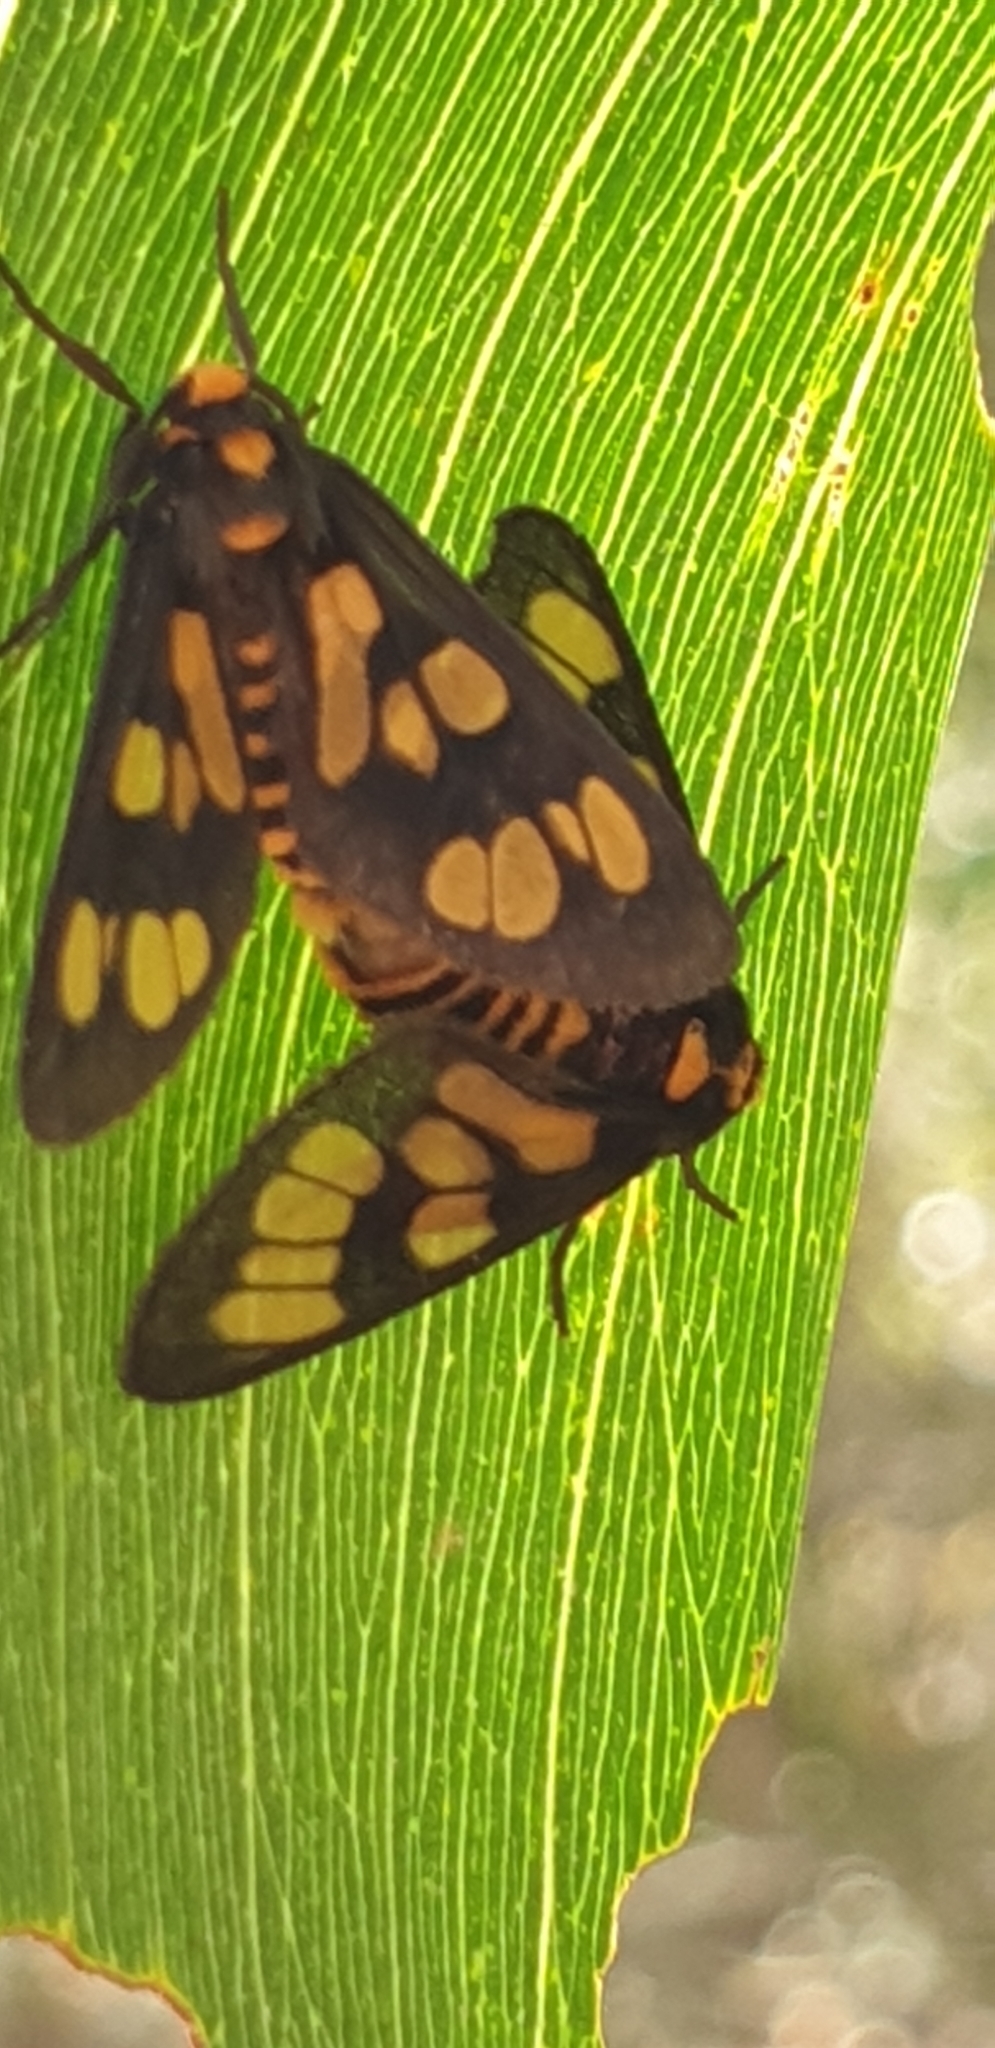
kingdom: Animalia
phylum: Arthropoda
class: Insecta
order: Lepidoptera
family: Erebidae
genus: Eressa
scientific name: Eressa geographica
